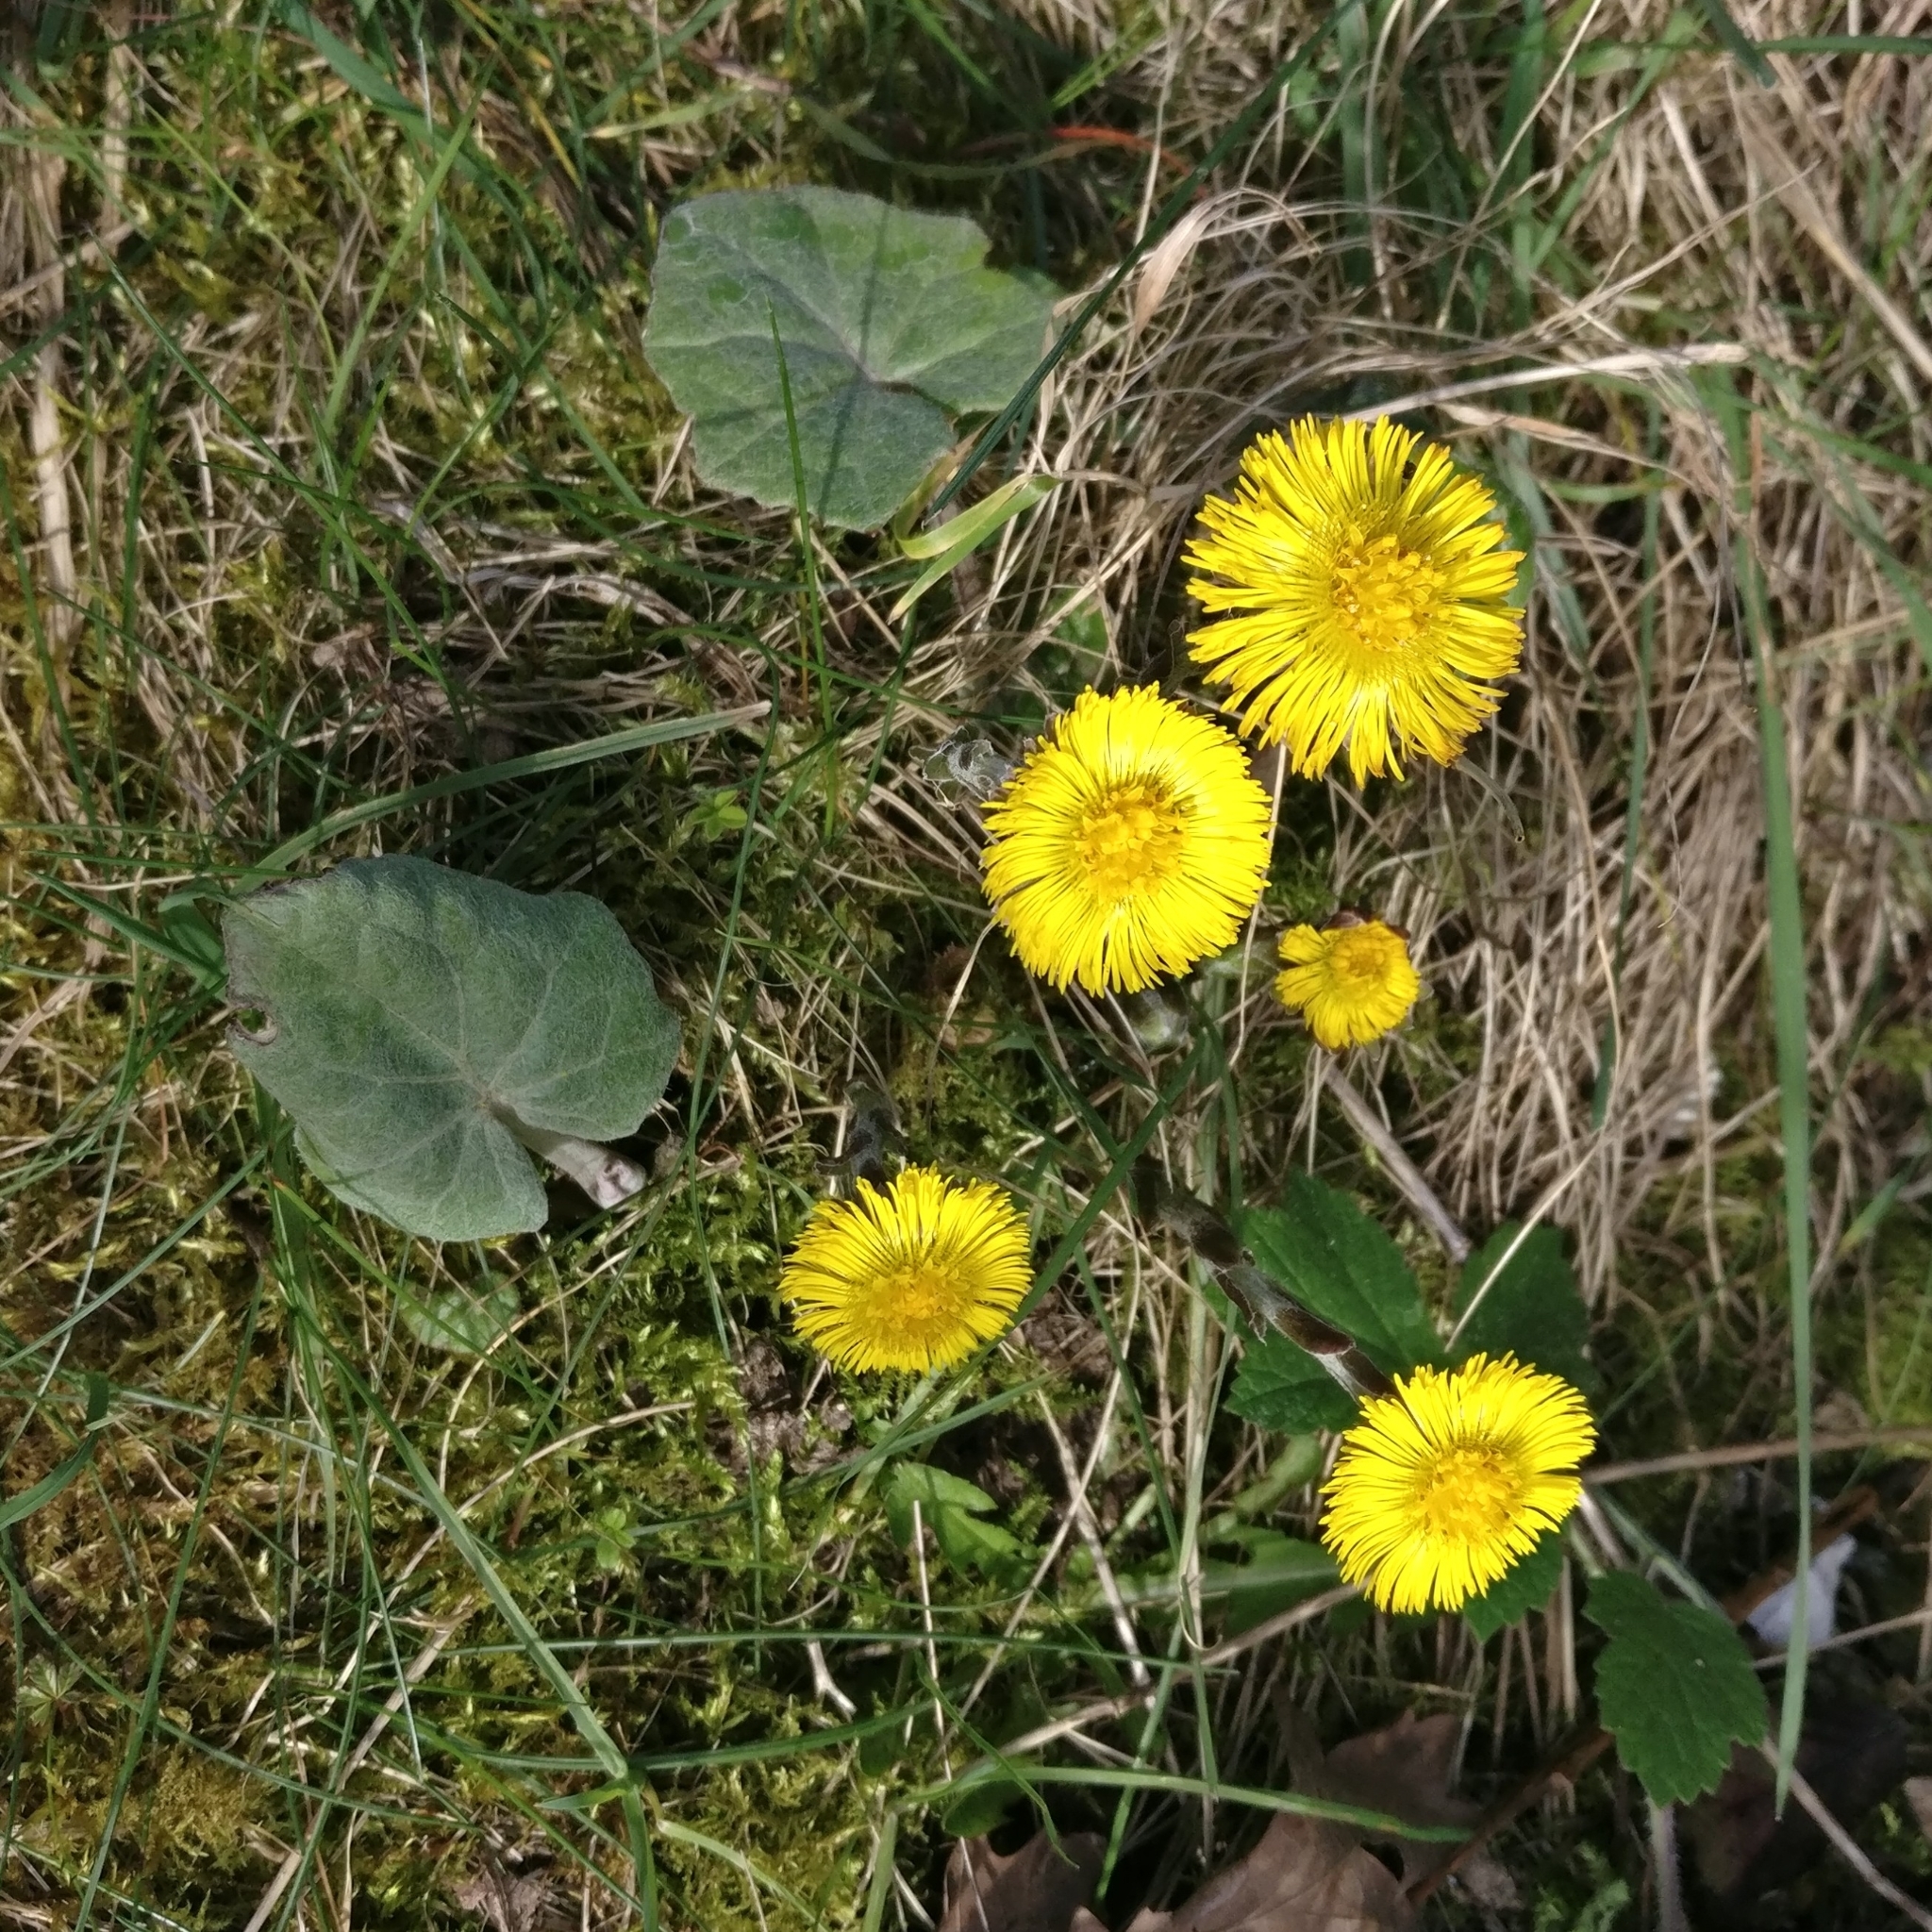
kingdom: Plantae
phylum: Tracheophyta
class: Magnoliopsida
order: Asterales
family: Asteraceae
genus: Tussilago
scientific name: Tussilago farfara
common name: Coltsfoot
